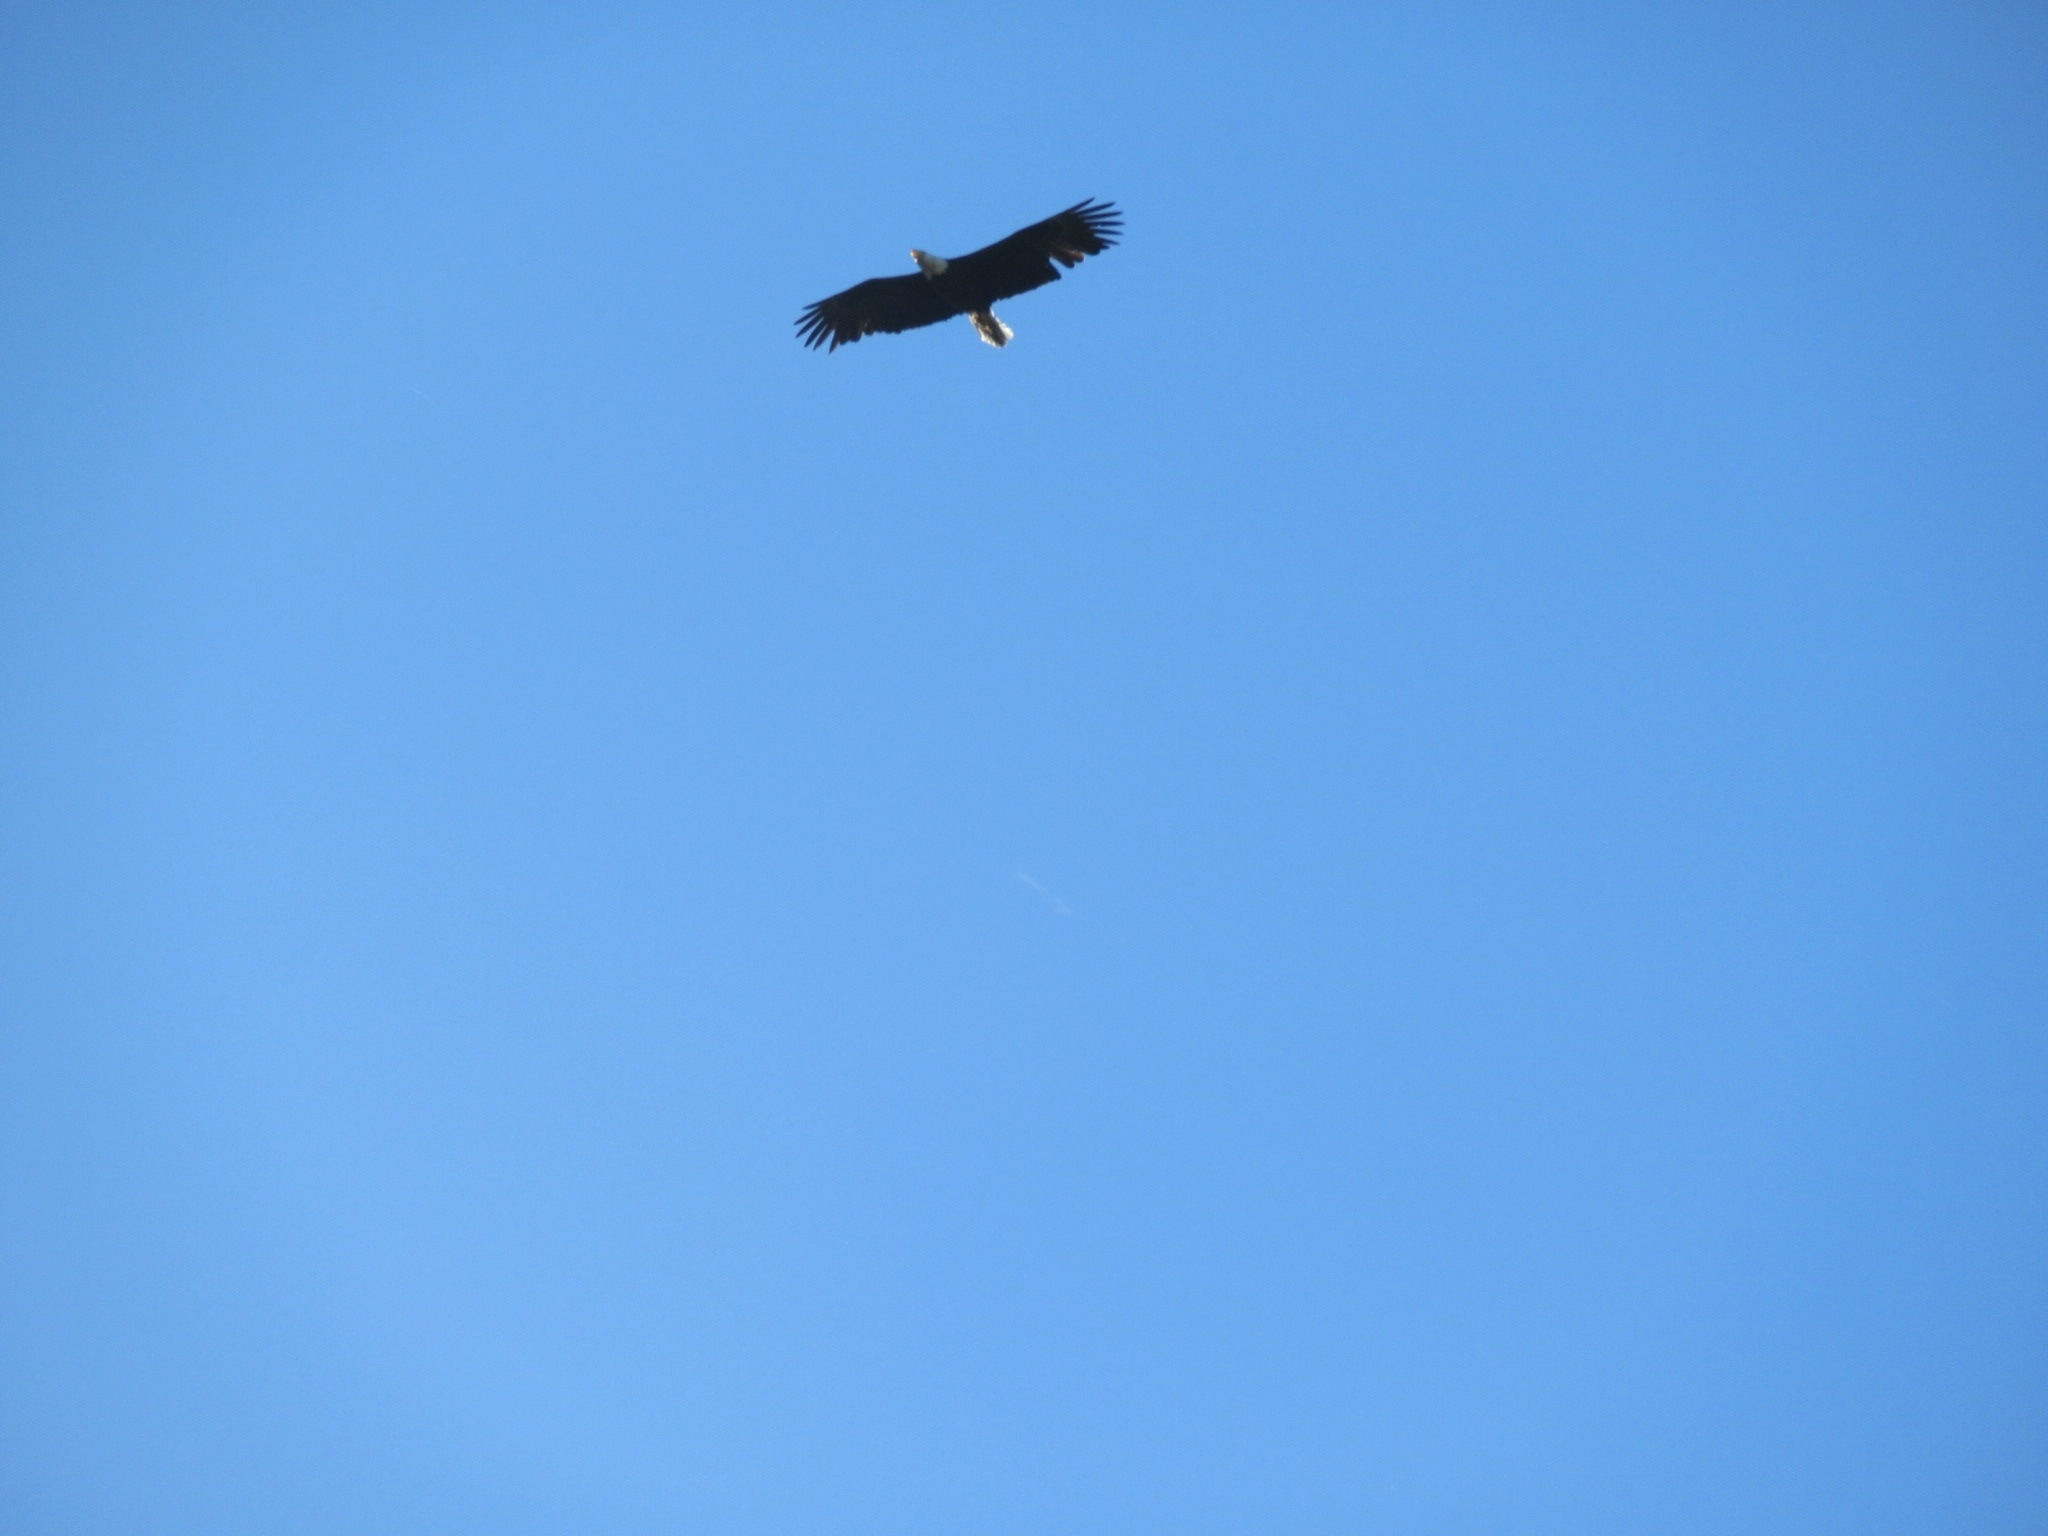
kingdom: Animalia
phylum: Chordata
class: Aves
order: Accipitriformes
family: Accipitridae
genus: Haliaeetus
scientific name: Haliaeetus leucocephalus
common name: Bald eagle
